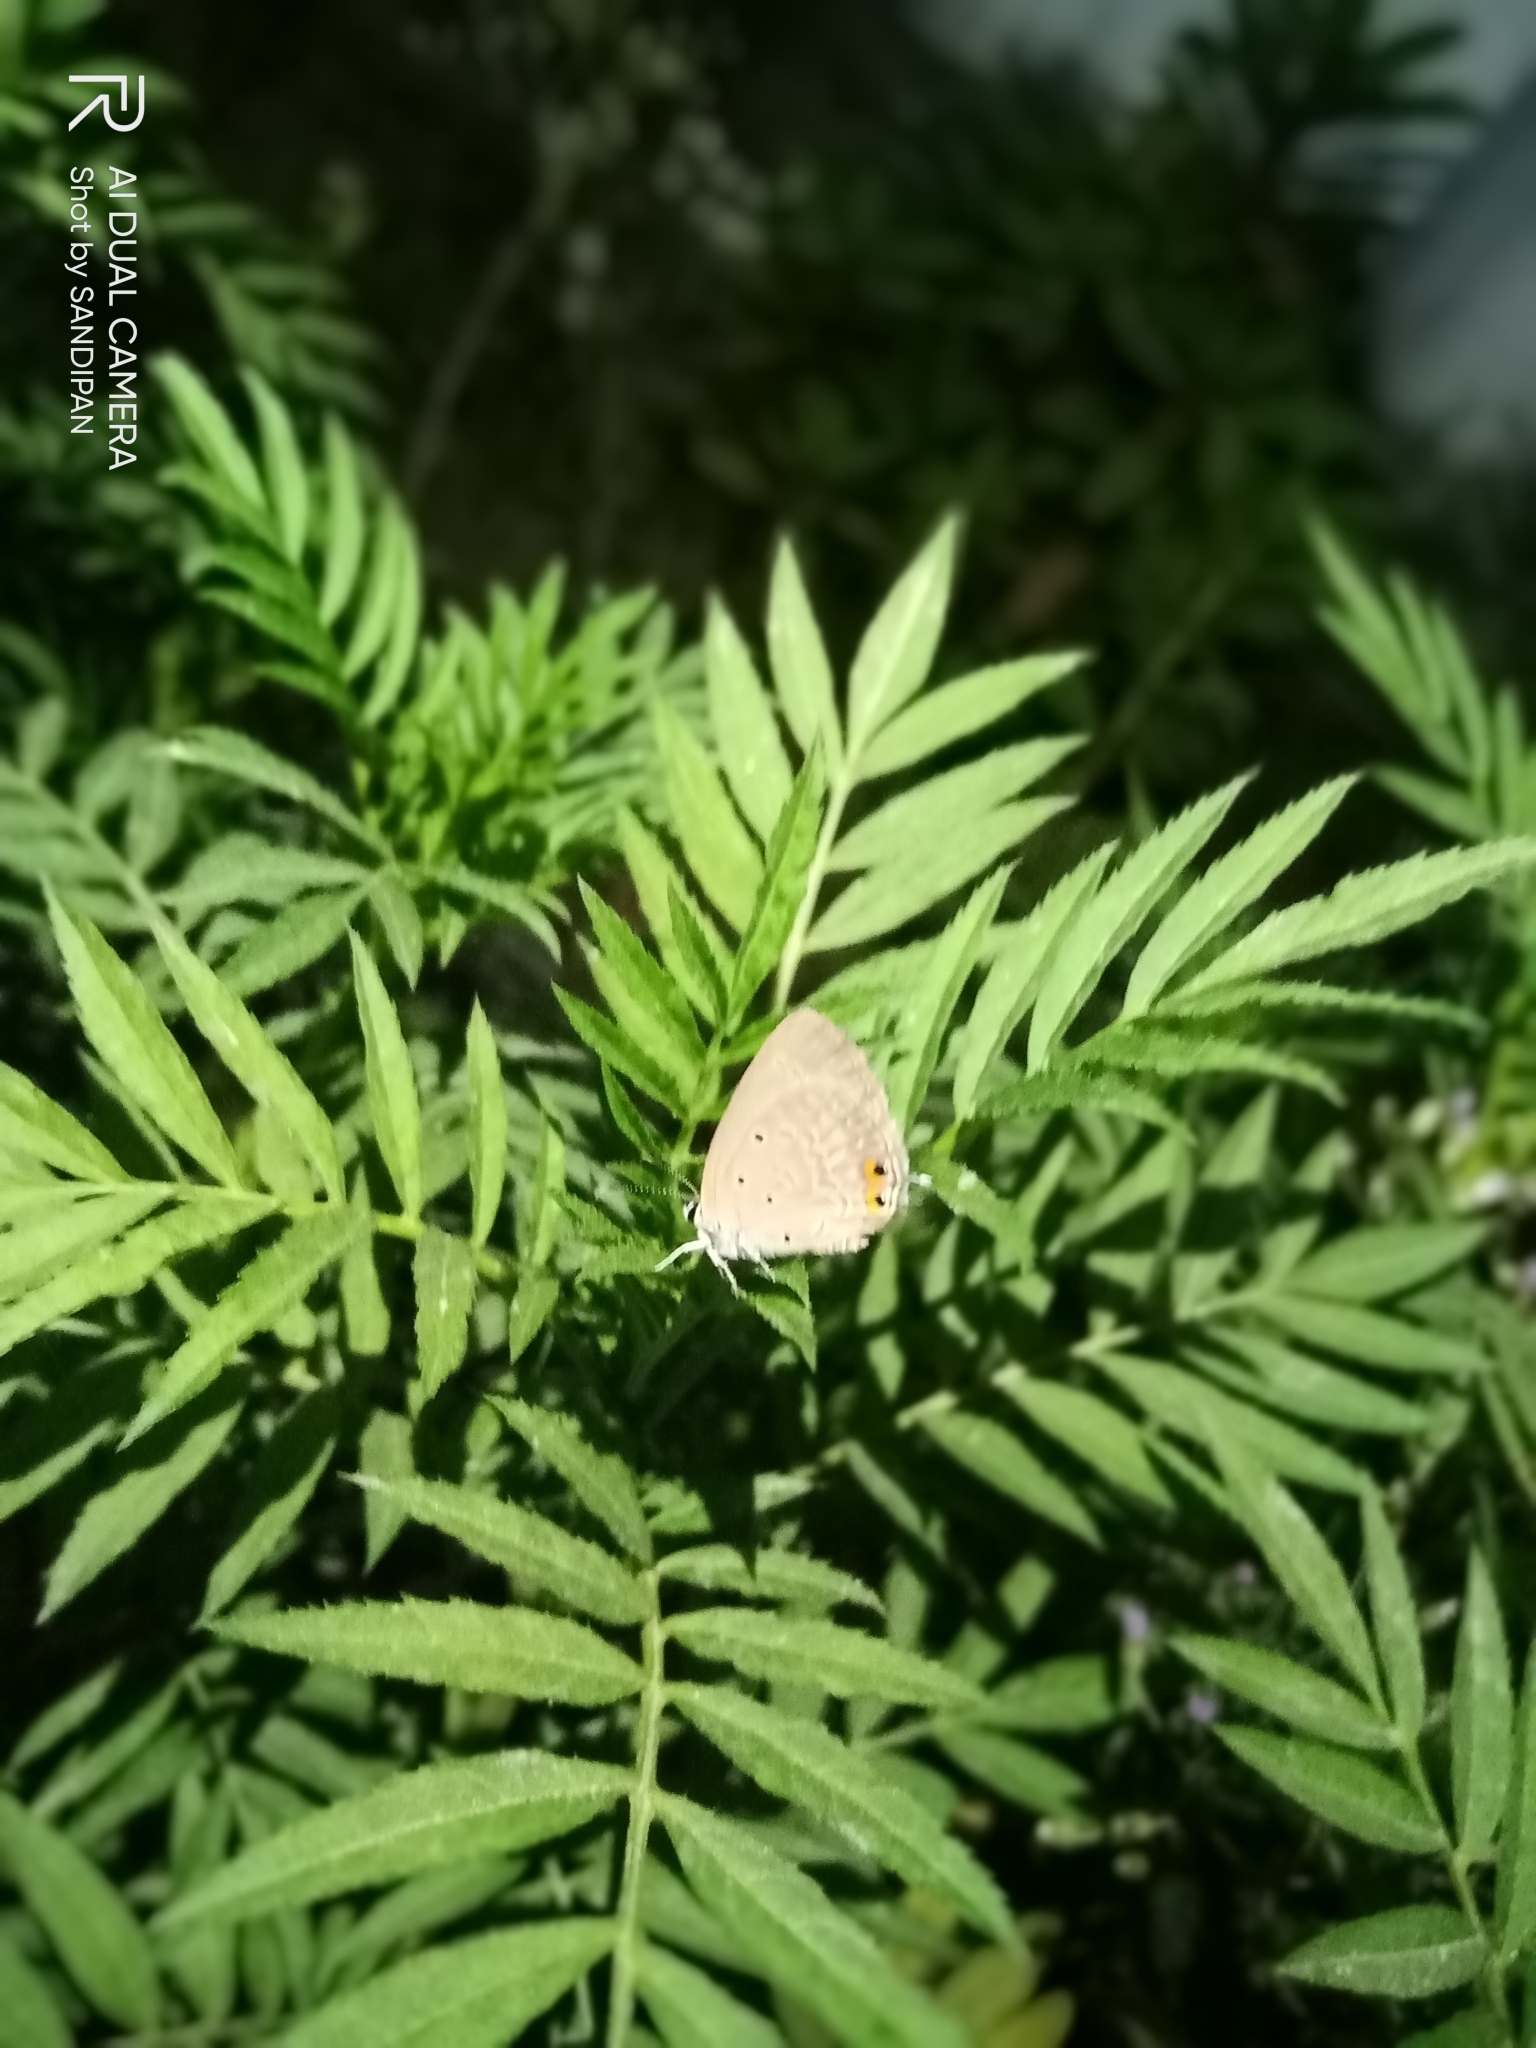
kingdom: Animalia
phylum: Arthropoda
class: Insecta
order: Lepidoptera
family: Lycaenidae
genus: Euchrysops
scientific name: Euchrysops cnejus
